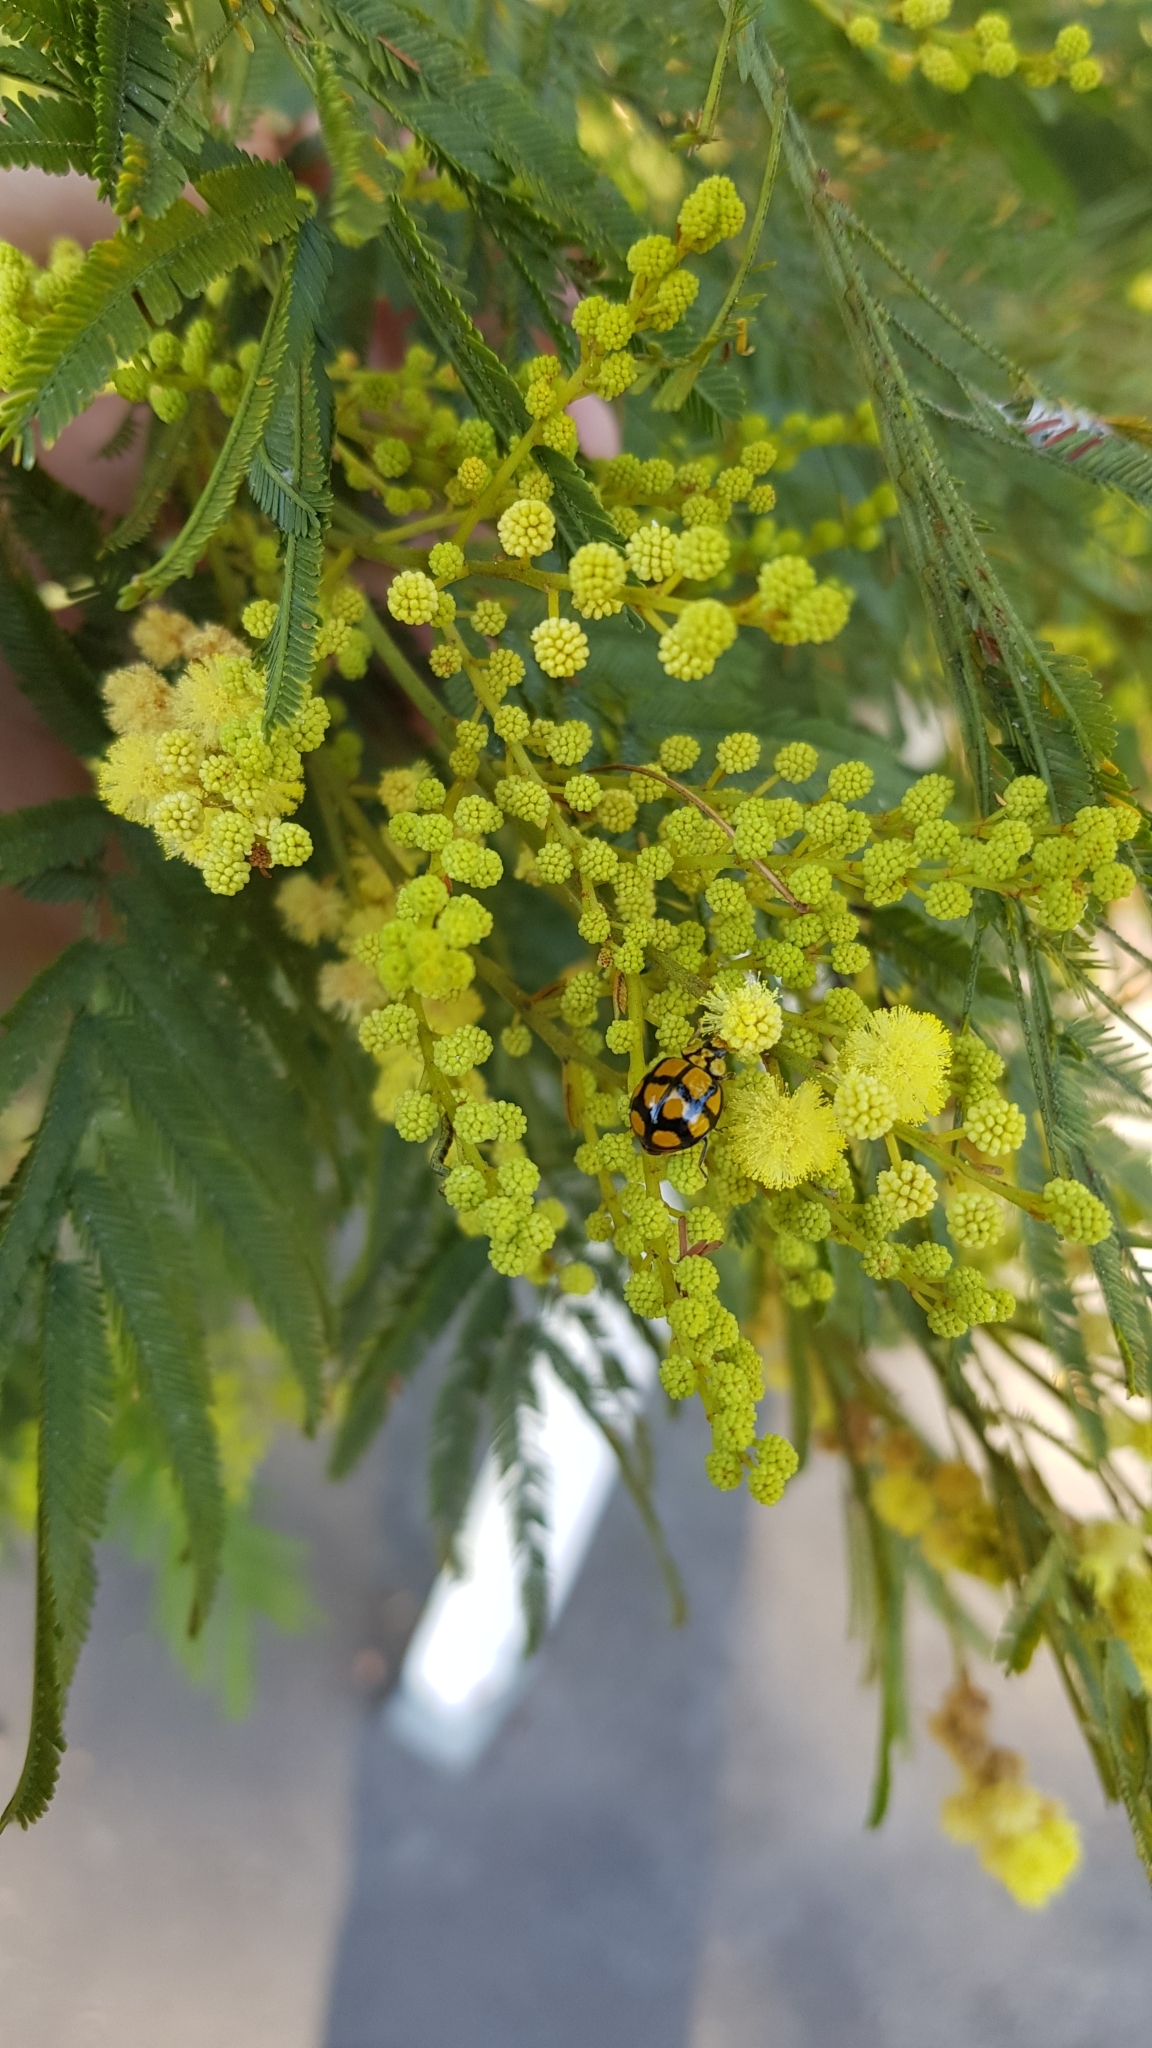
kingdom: Animalia
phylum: Arthropoda
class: Insecta
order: Coleoptera
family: Coccinellidae
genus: Harmonia
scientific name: Harmonia
